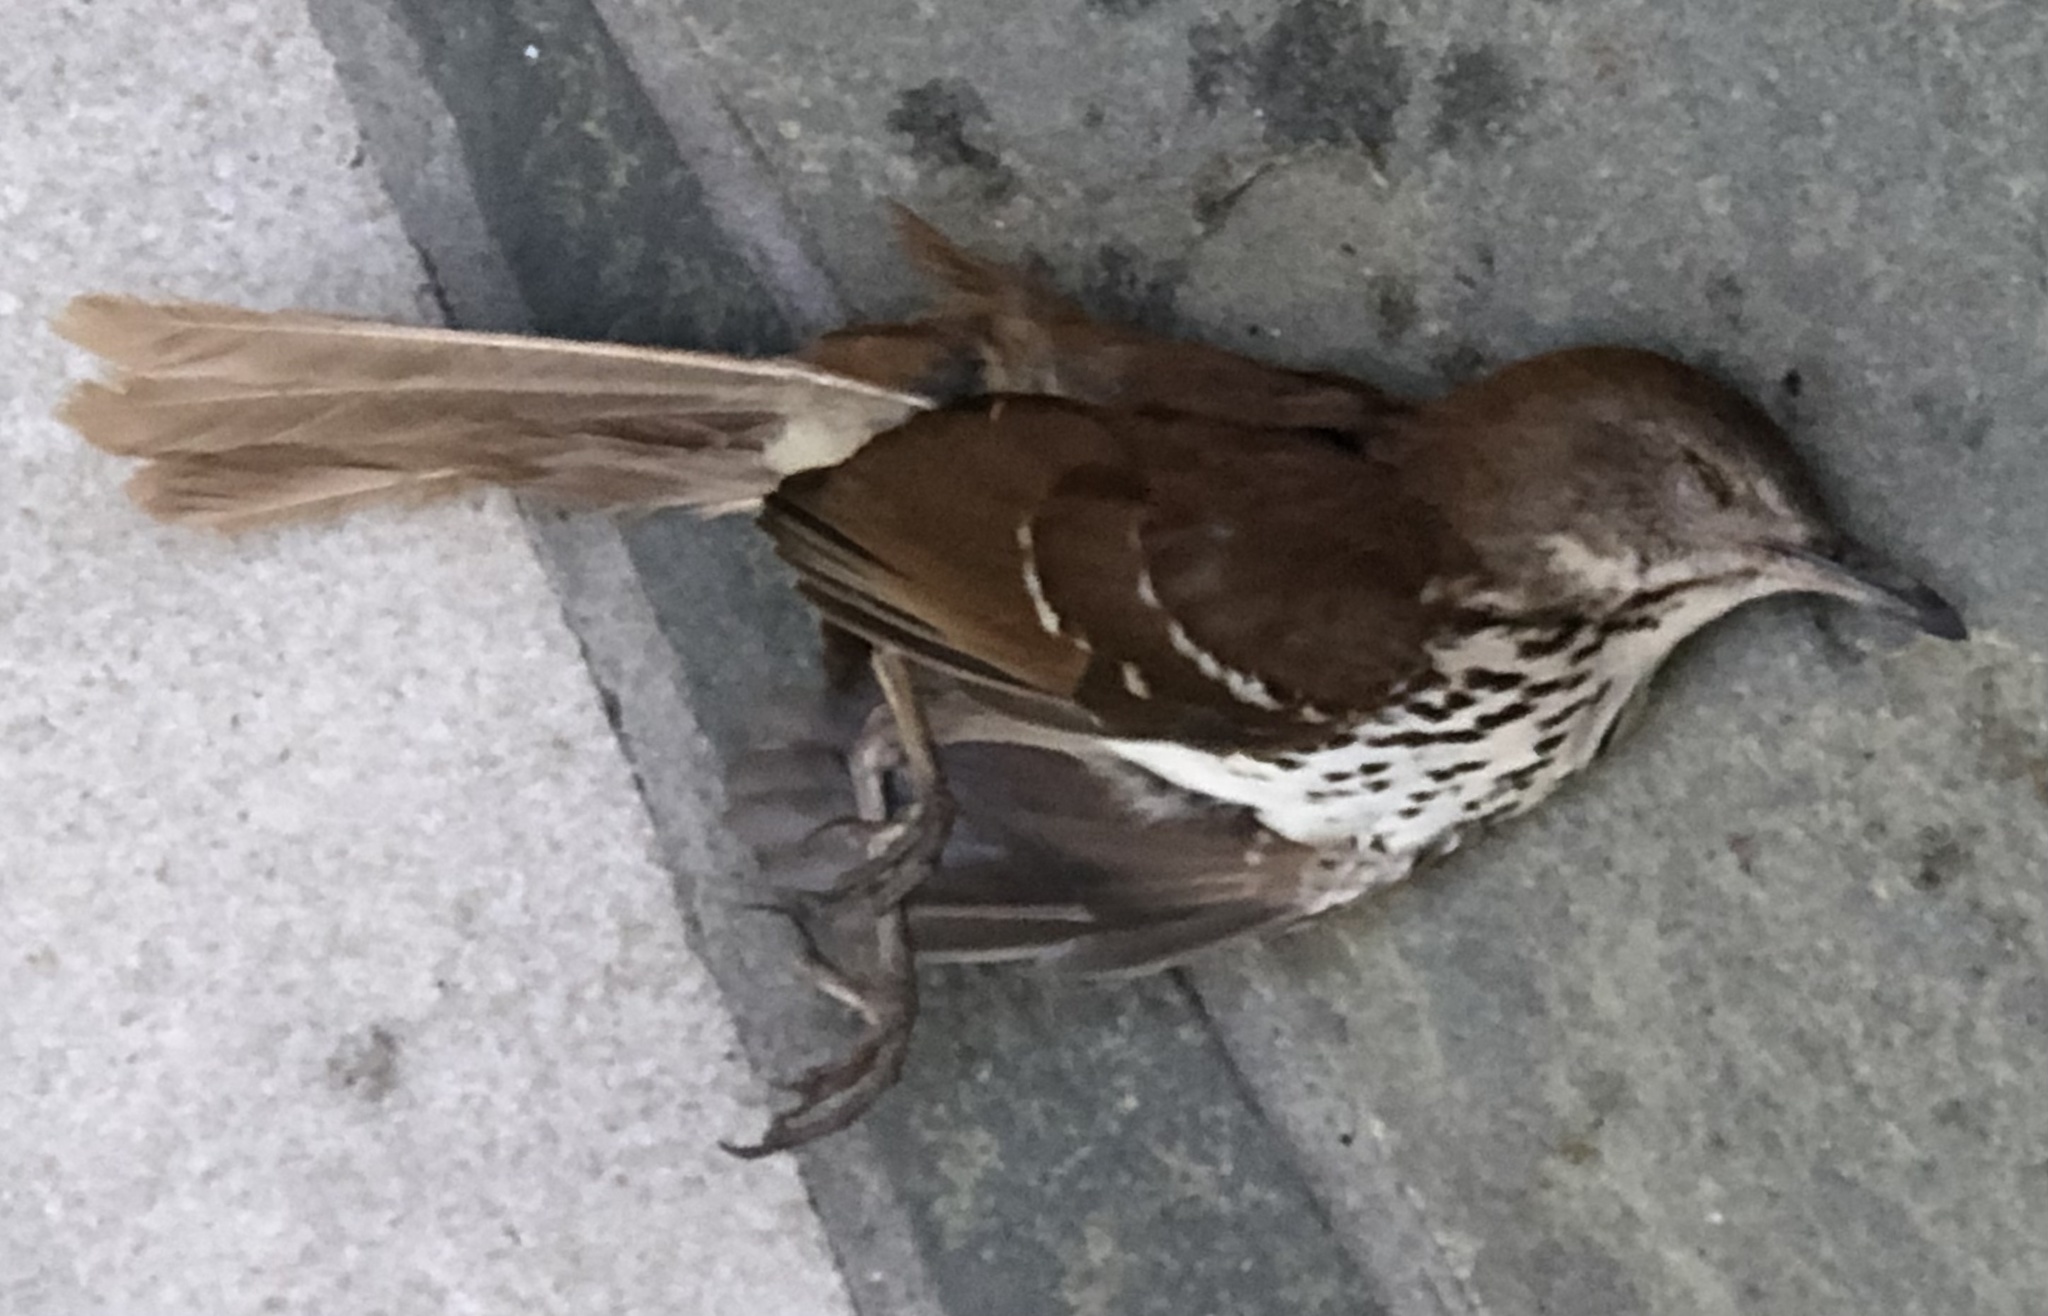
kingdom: Animalia
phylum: Chordata
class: Aves
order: Passeriformes
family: Mimidae
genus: Toxostoma
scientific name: Toxostoma rufum
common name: Brown thrasher
